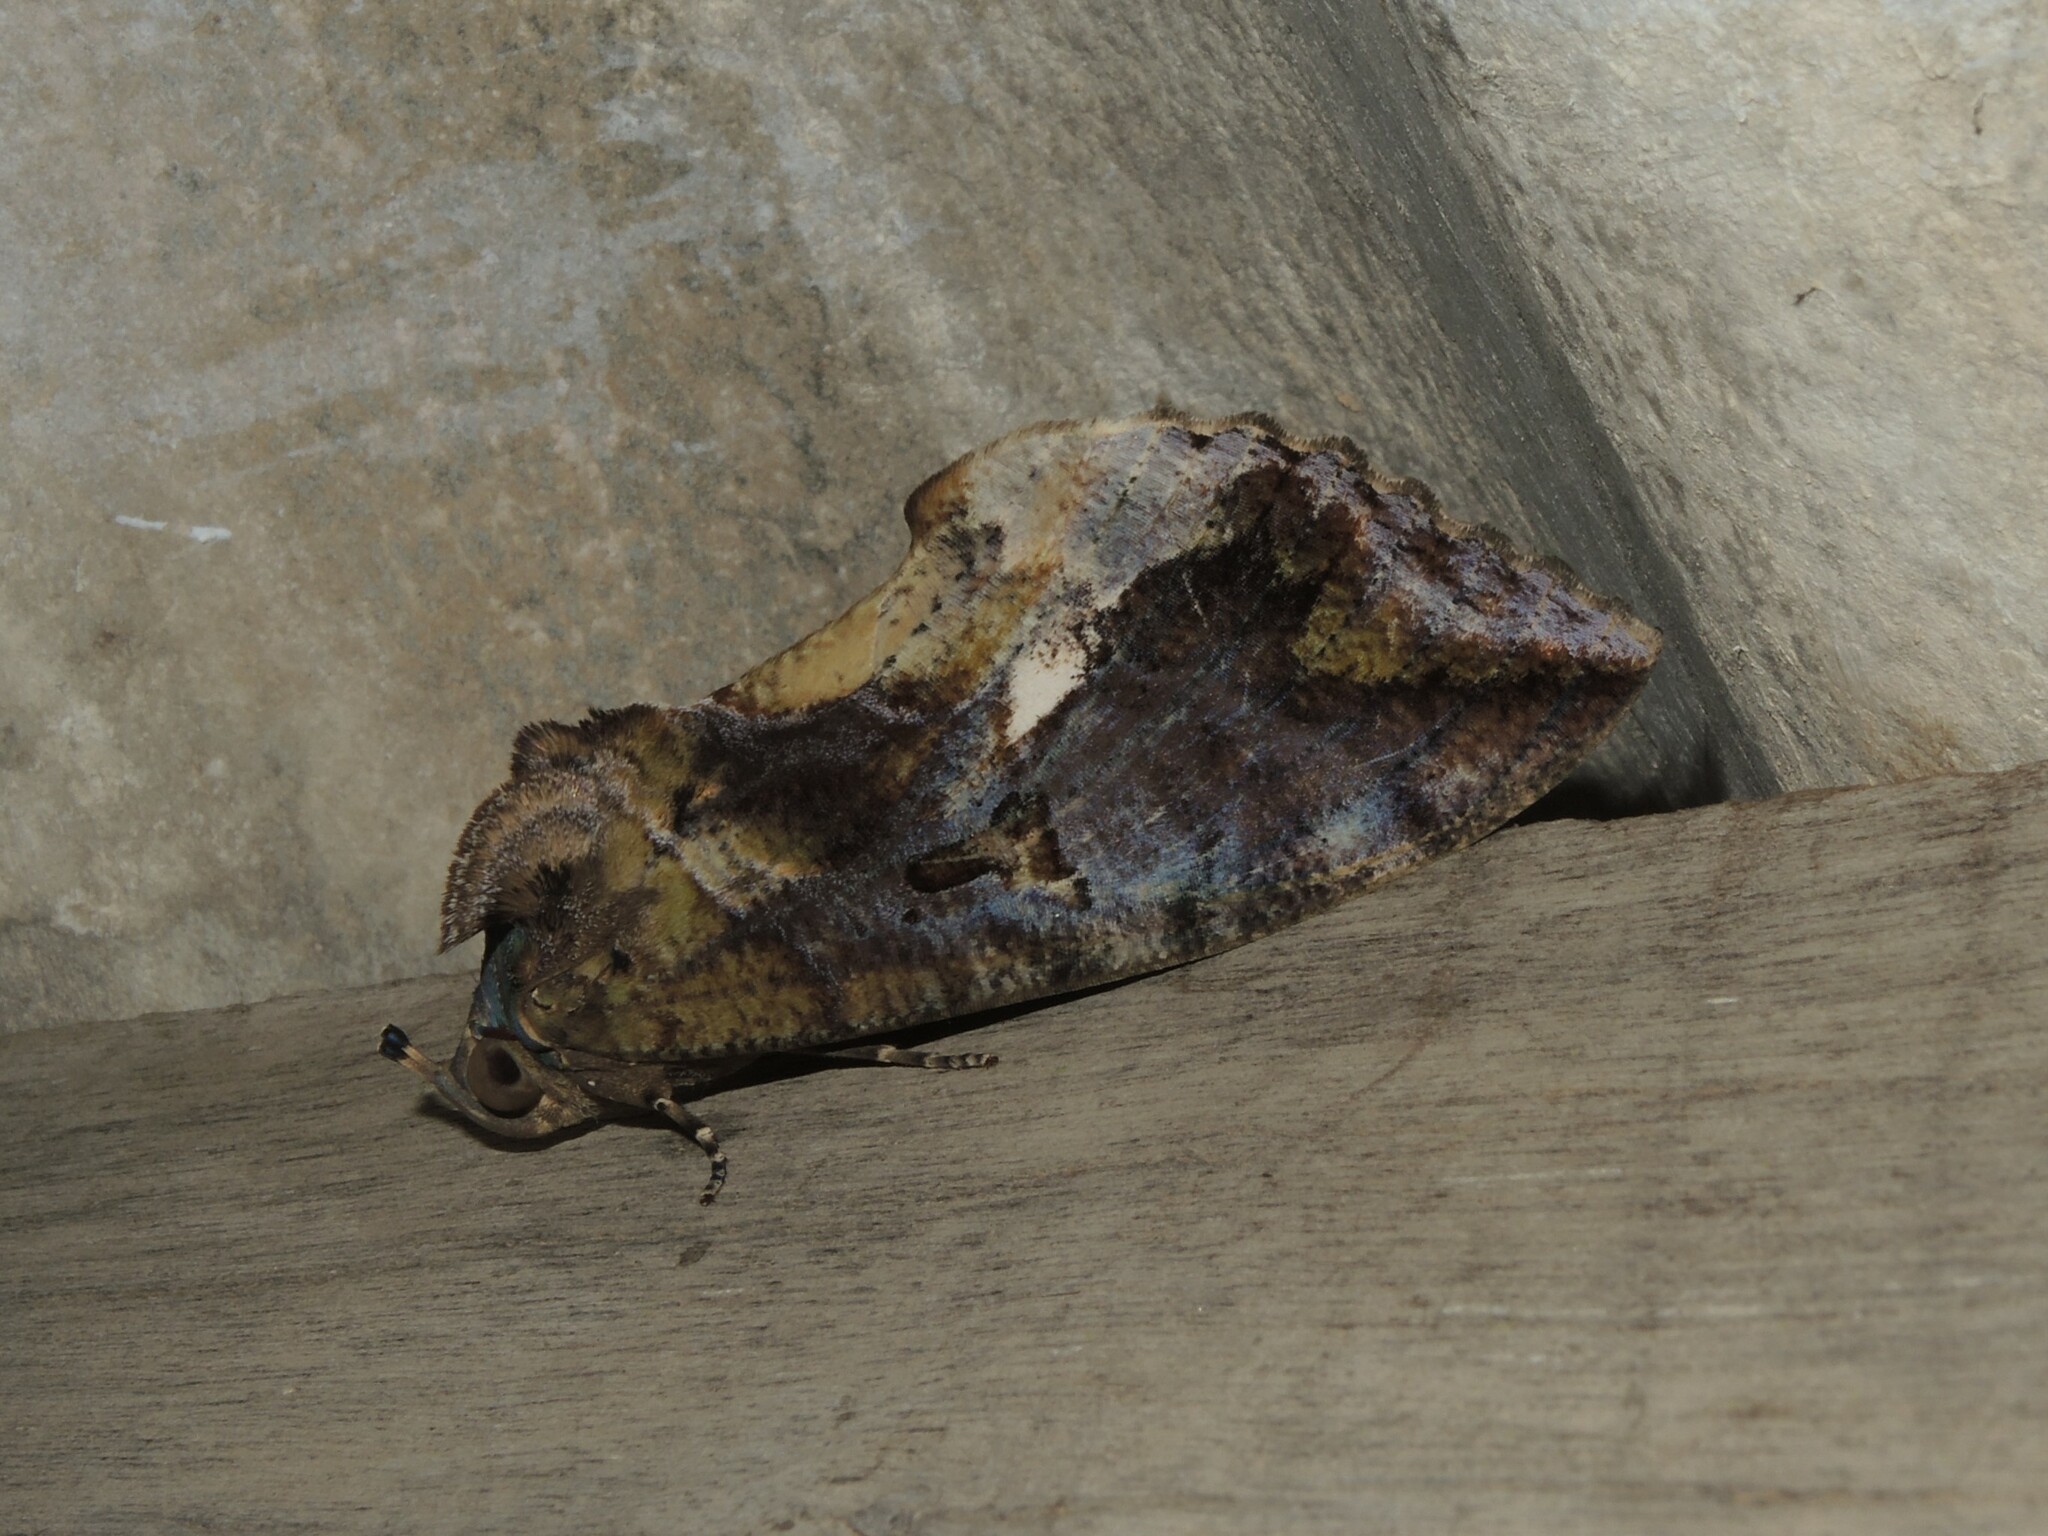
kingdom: Animalia
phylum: Arthropoda
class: Insecta
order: Lepidoptera
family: Erebidae
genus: Eudocima
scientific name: Eudocima phalonia
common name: Wasp
